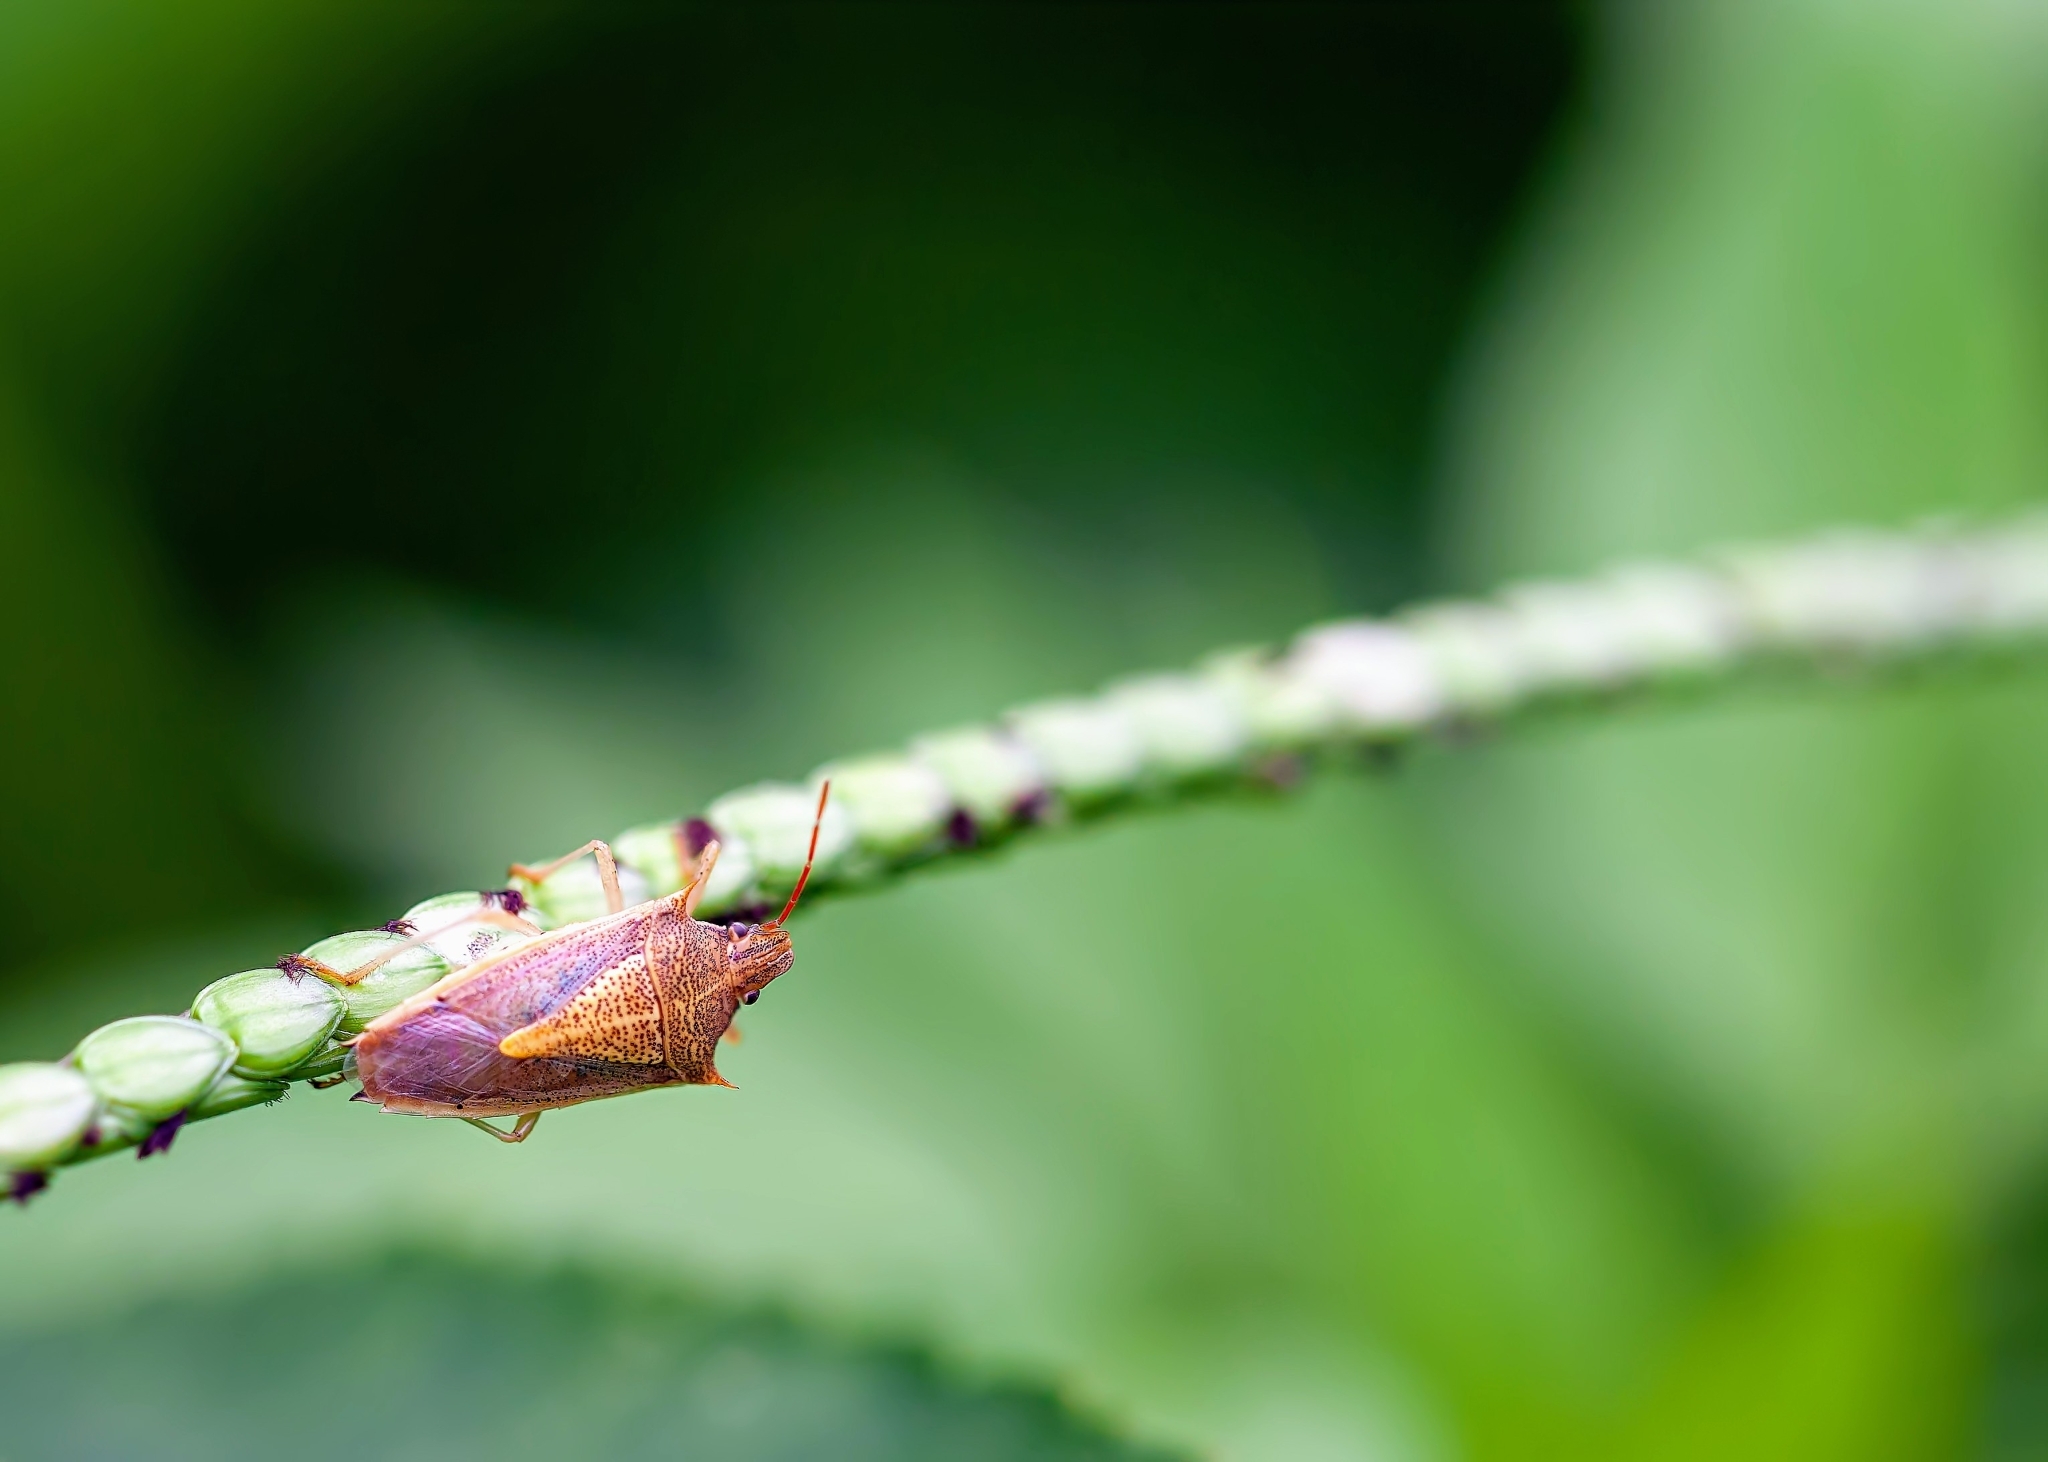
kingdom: Animalia
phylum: Arthropoda
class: Insecta
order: Hemiptera
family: Pentatomidae
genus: Oebalus
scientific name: Oebalus pugnax
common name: Rice stink bug
